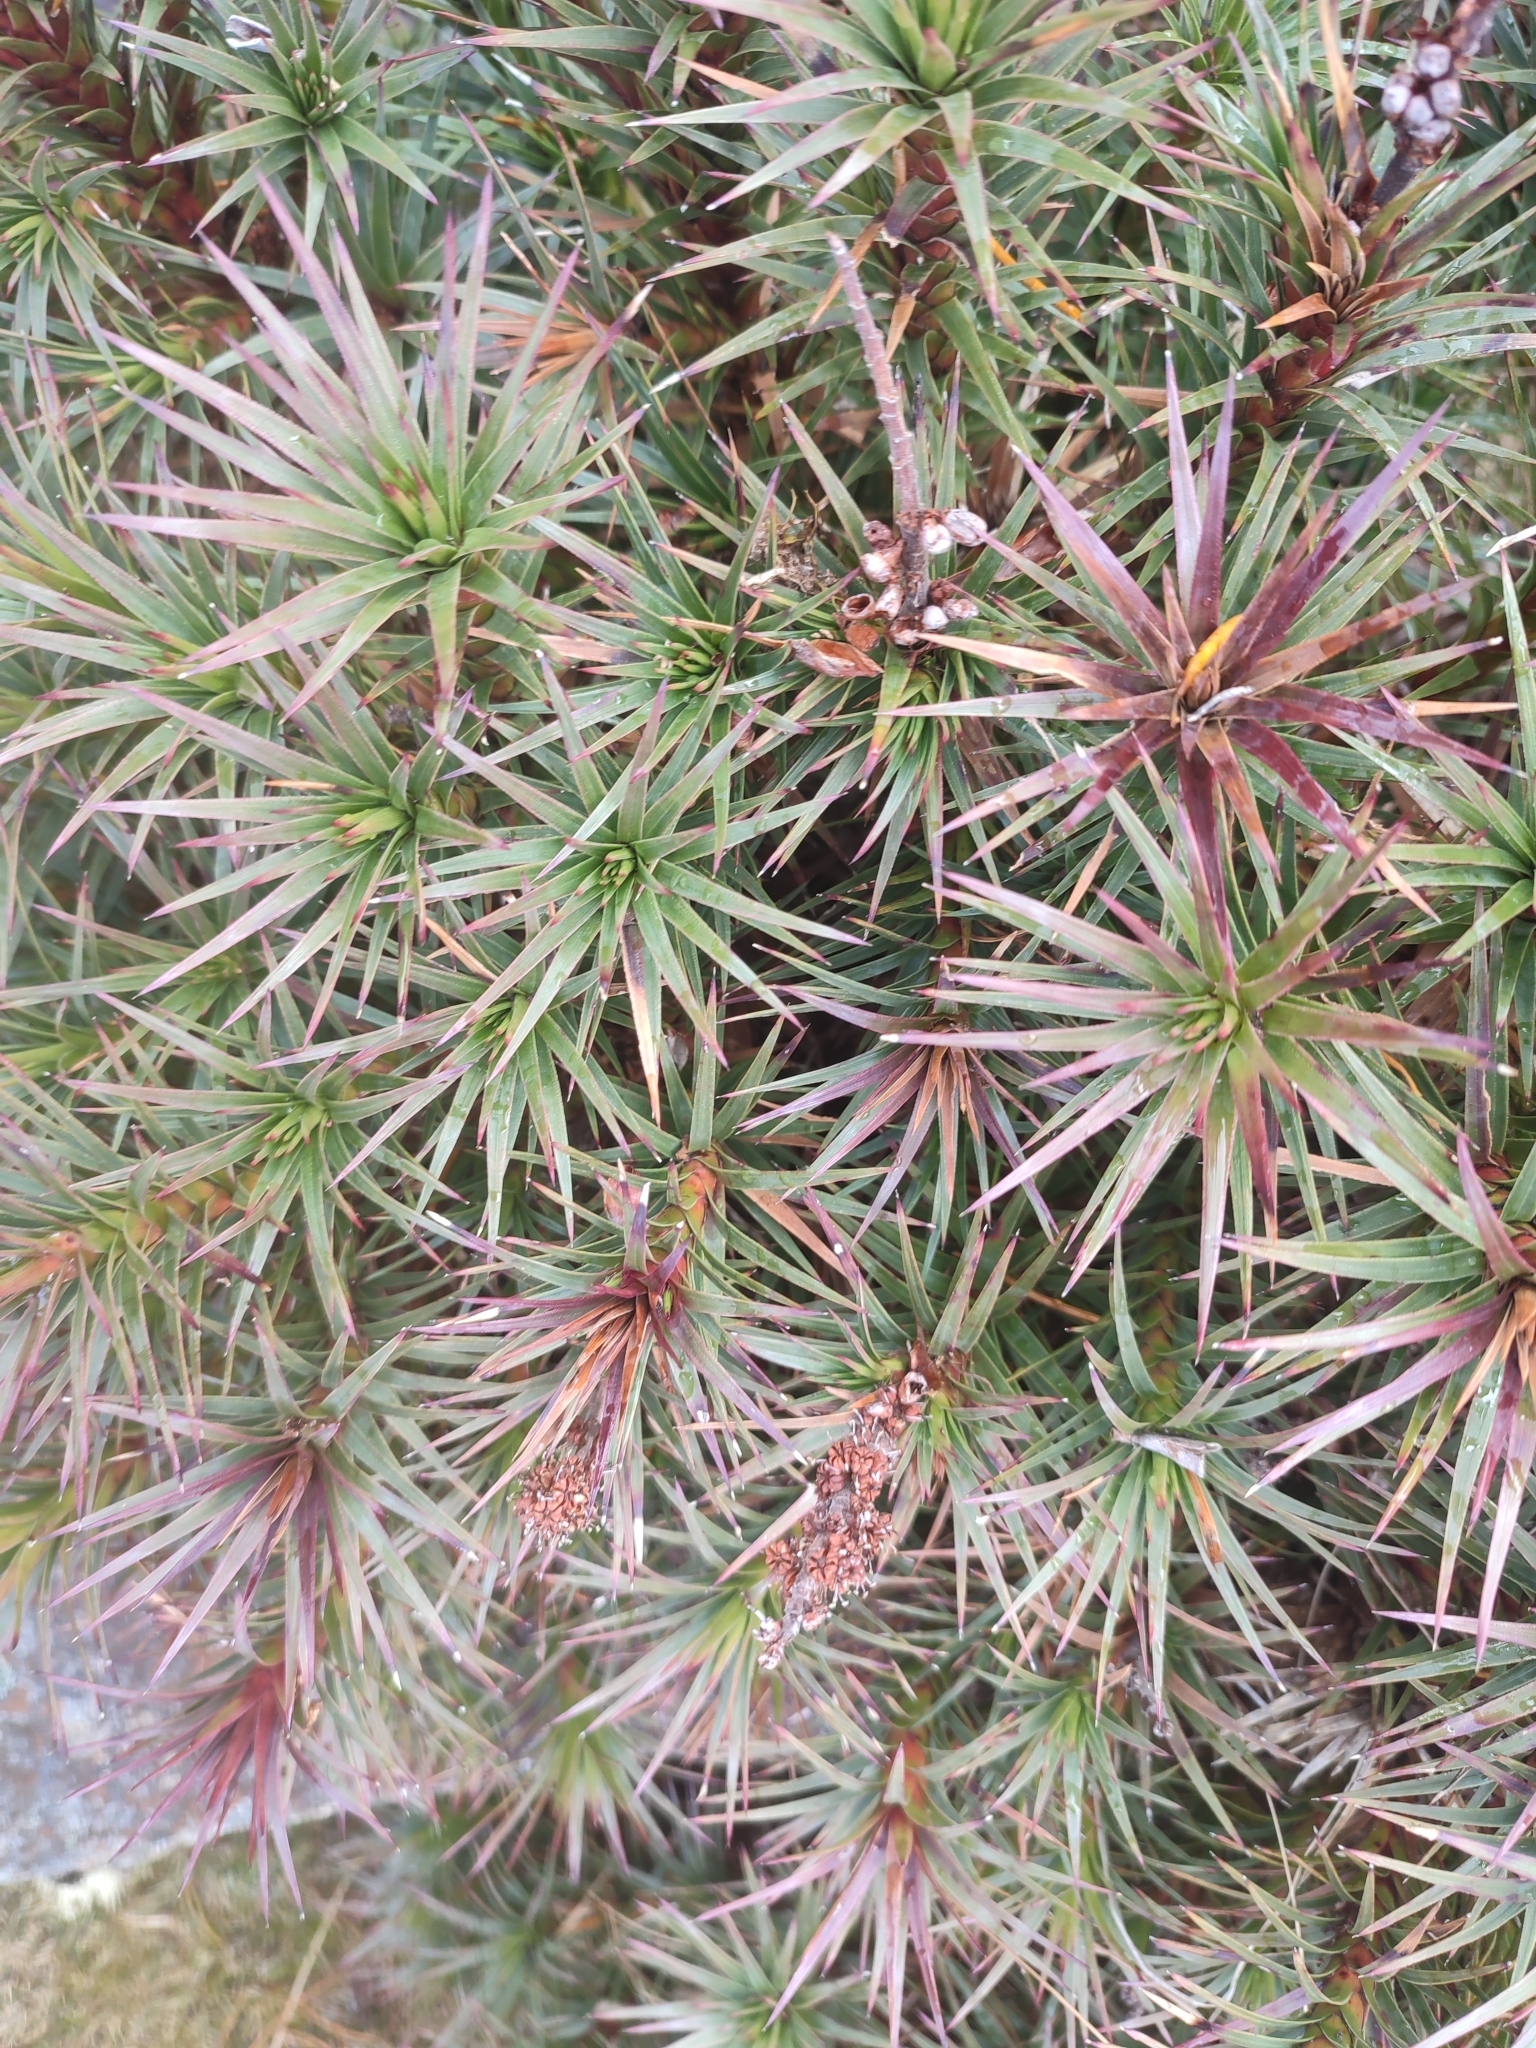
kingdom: Plantae
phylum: Tracheophyta
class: Magnoliopsida
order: Ericales
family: Ericaceae
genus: Dracophyllum
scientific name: Dracophyllum persistentifolium
